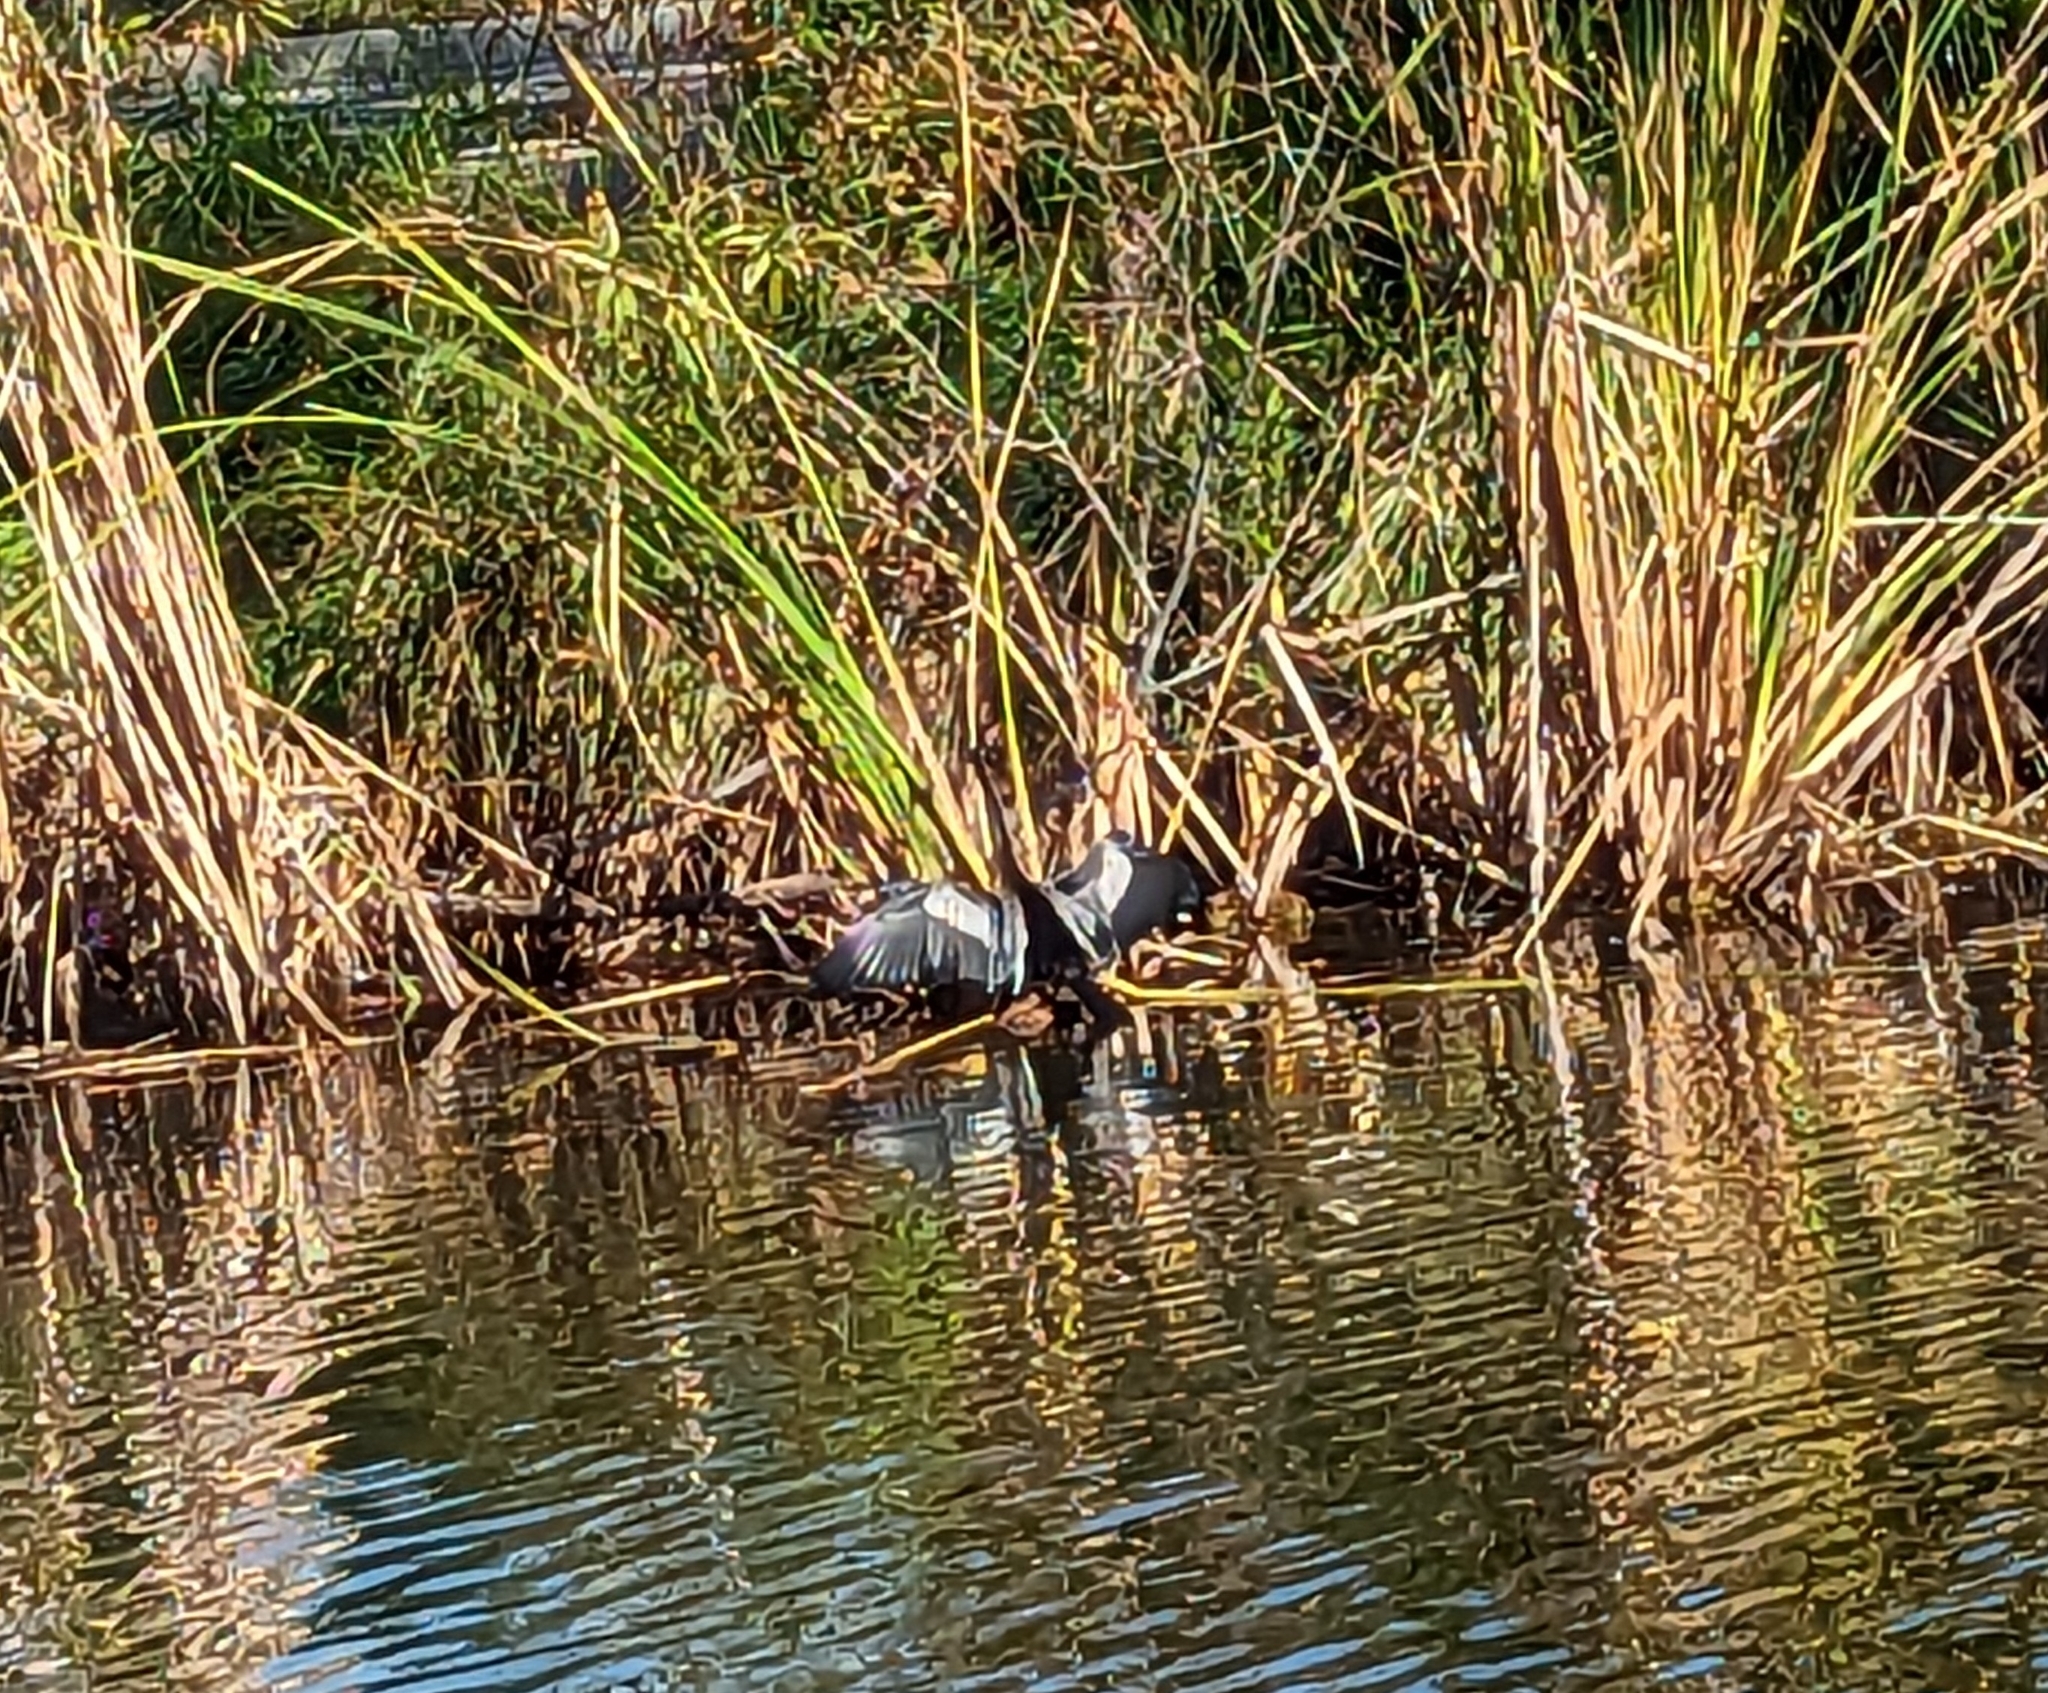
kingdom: Animalia
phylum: Chordata
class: Aves
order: Suliformes
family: Anhingidae
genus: Anhinga
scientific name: Anhinga anhinga
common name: Anhinga
